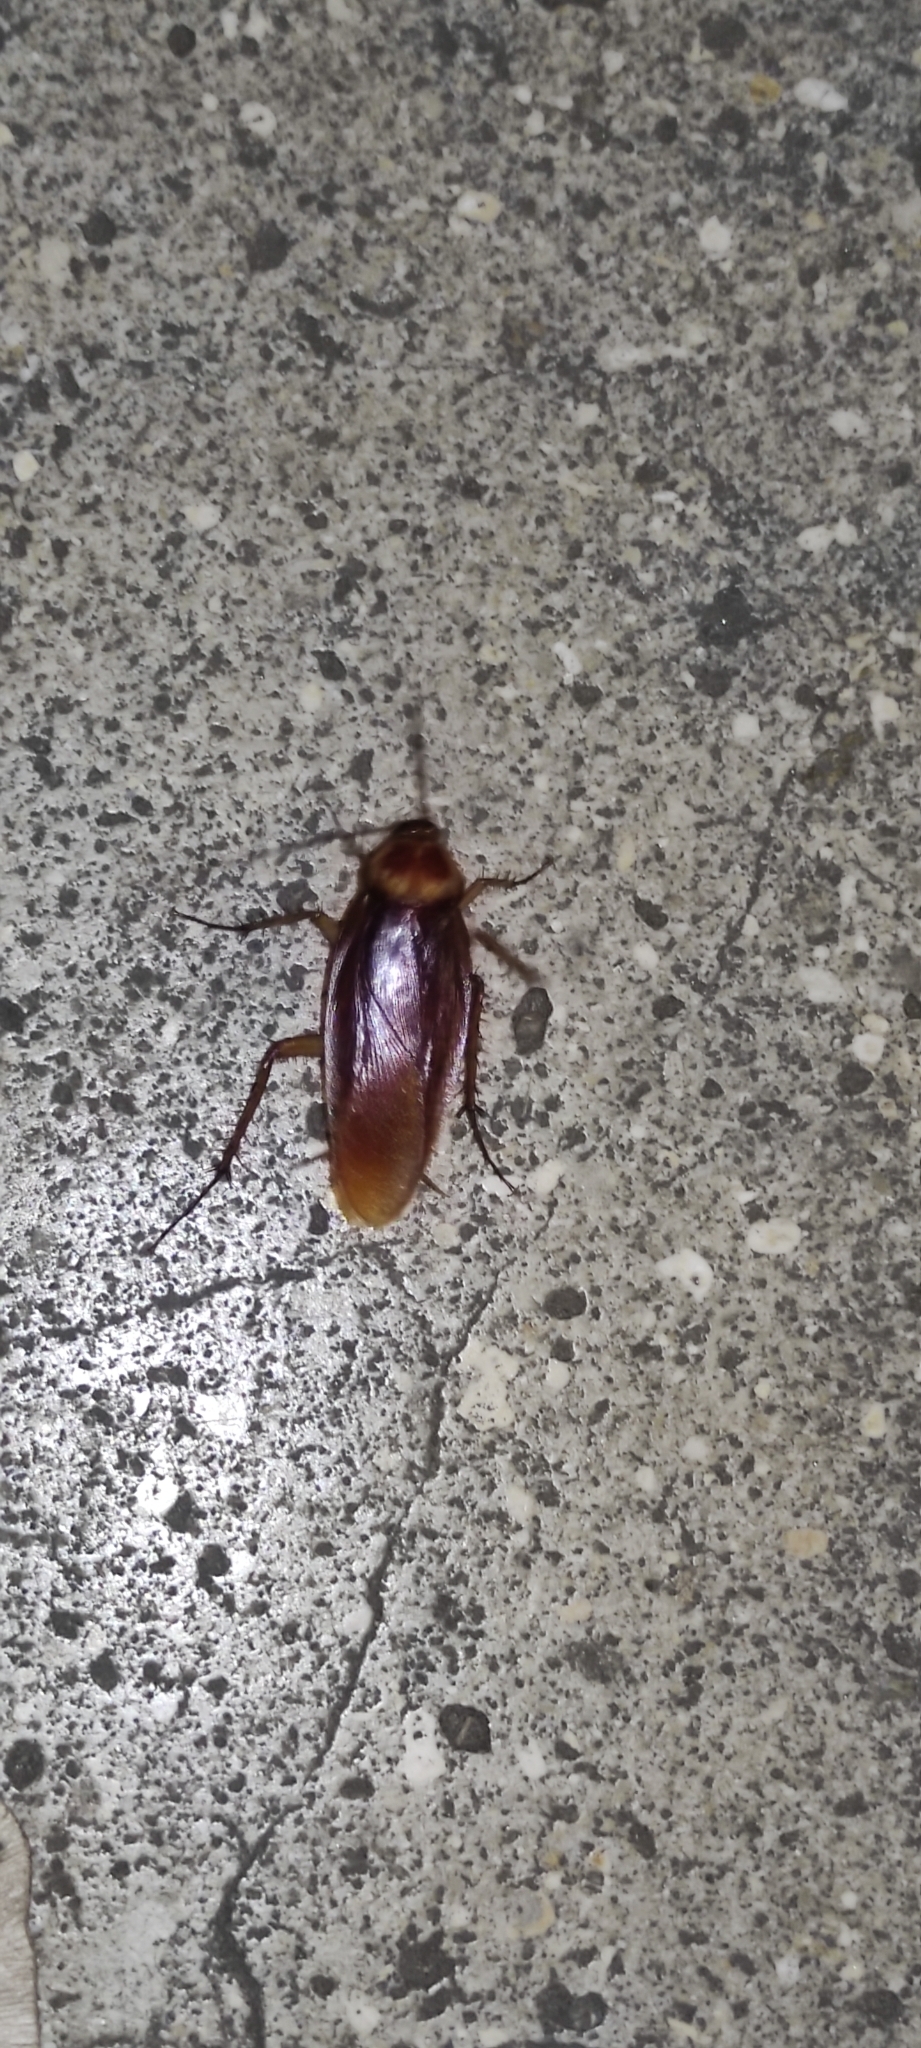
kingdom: Animalia
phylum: Arthropoda
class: Insecta
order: Blattodea
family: Blattidae
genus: Periplaneta
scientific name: Periplaneta americana
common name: American cockroach
